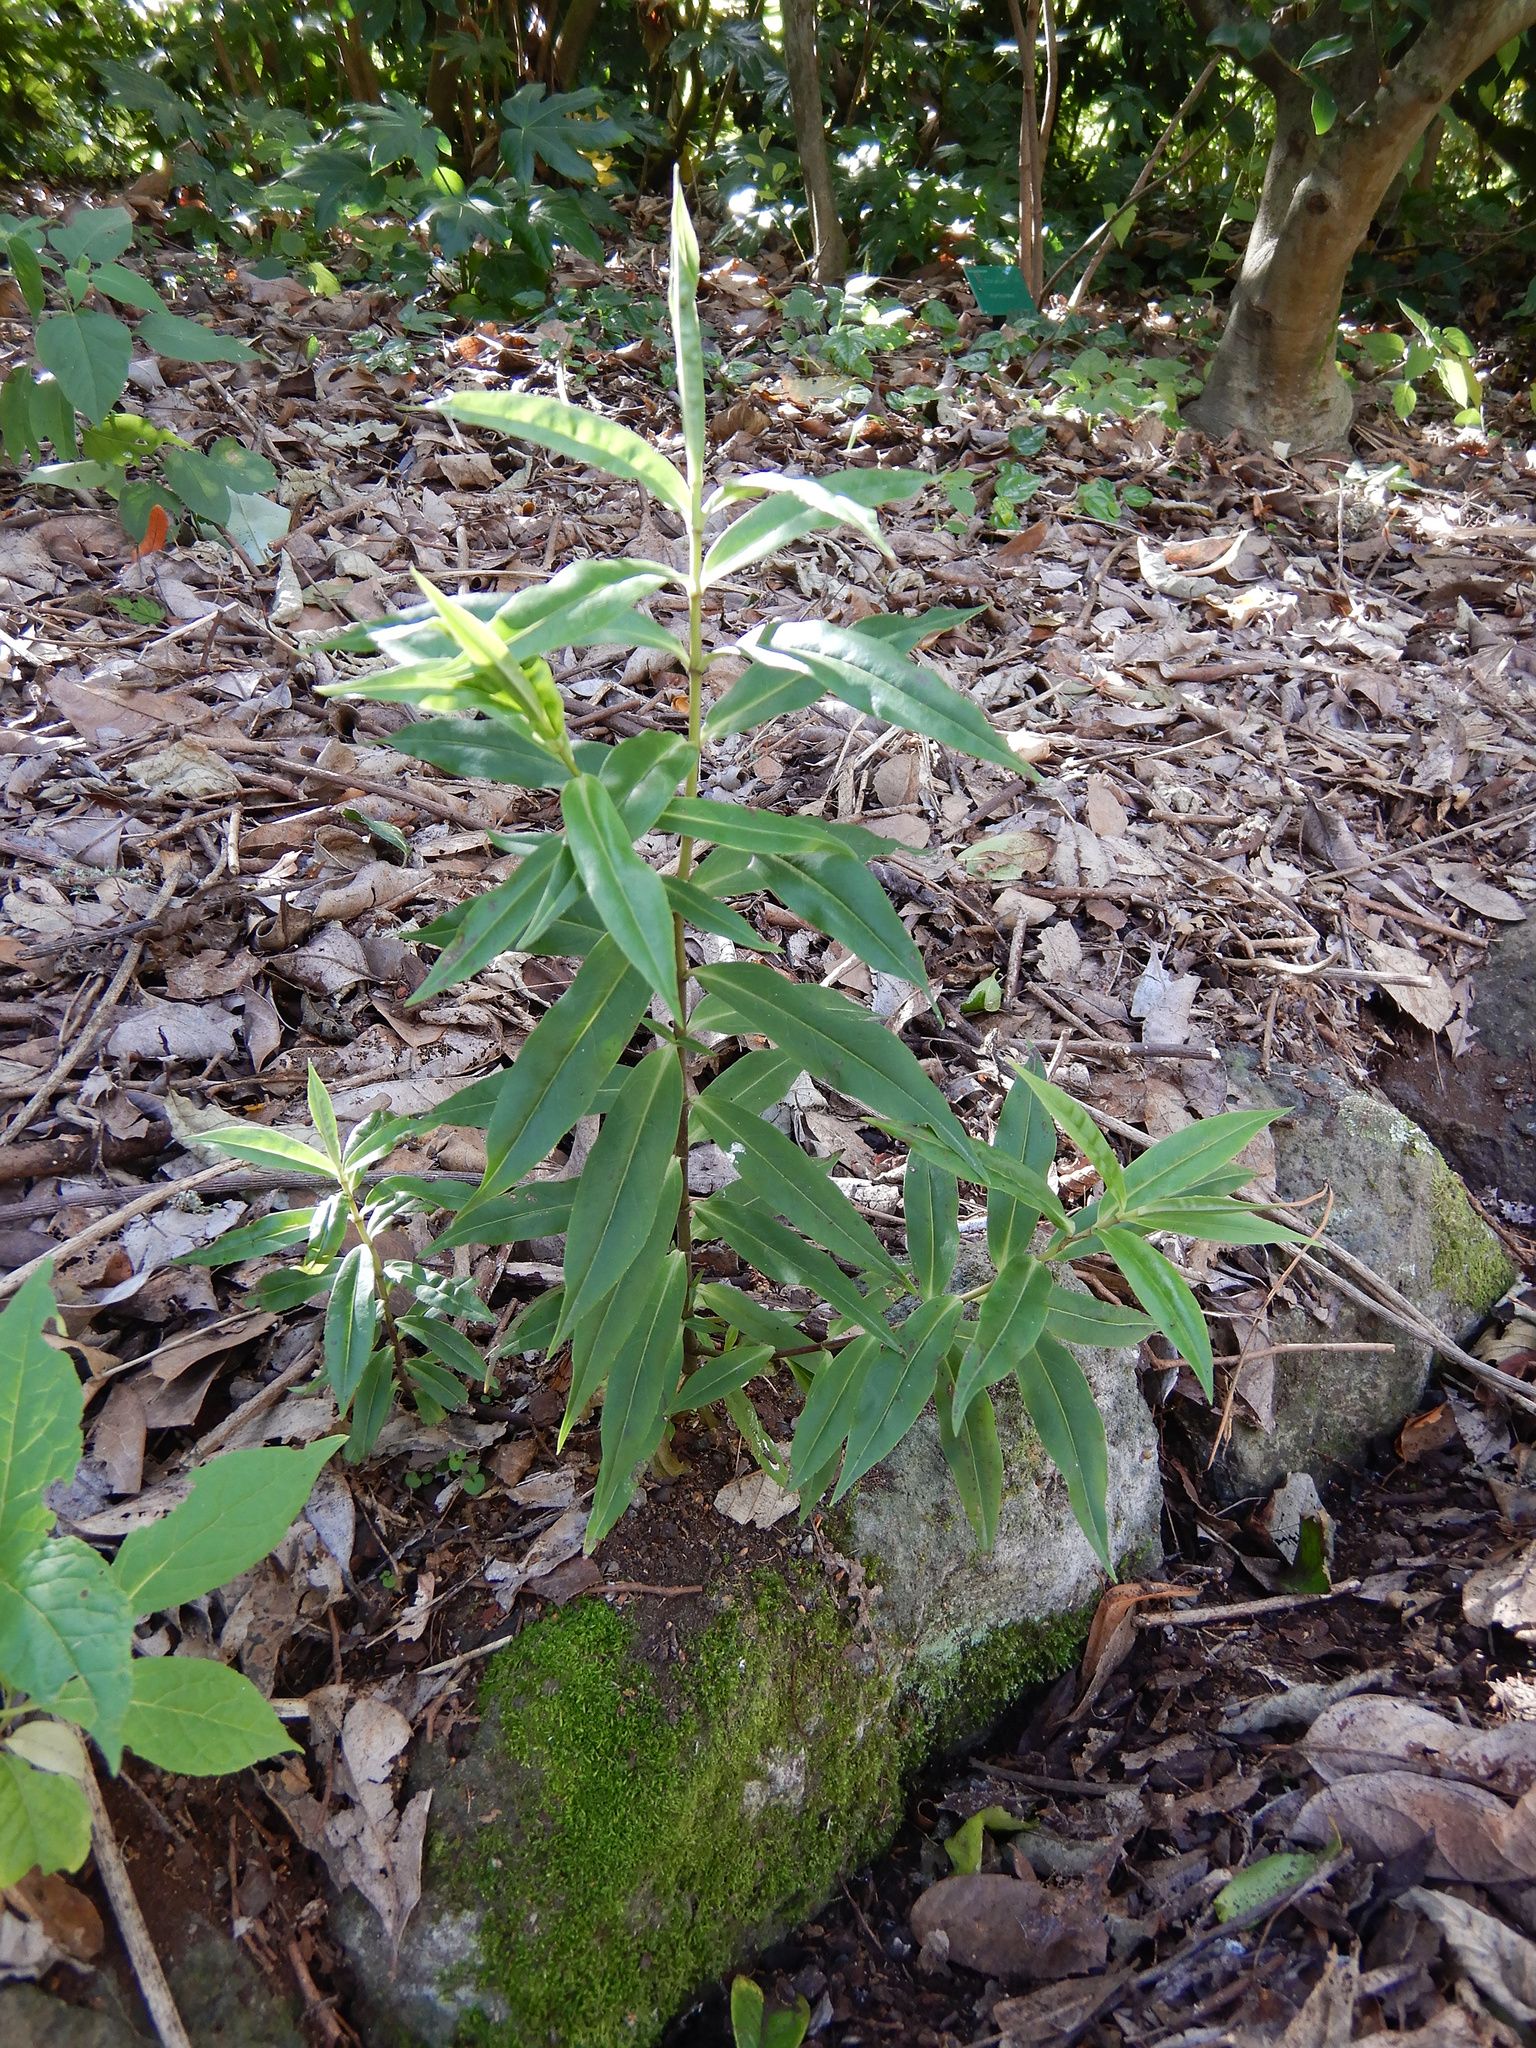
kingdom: Plantae
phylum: Tracheophyta
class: Magnoliopsida
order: Lamiales
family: Plantaginaceae
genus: Veronica
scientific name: Veronica salicifolia
